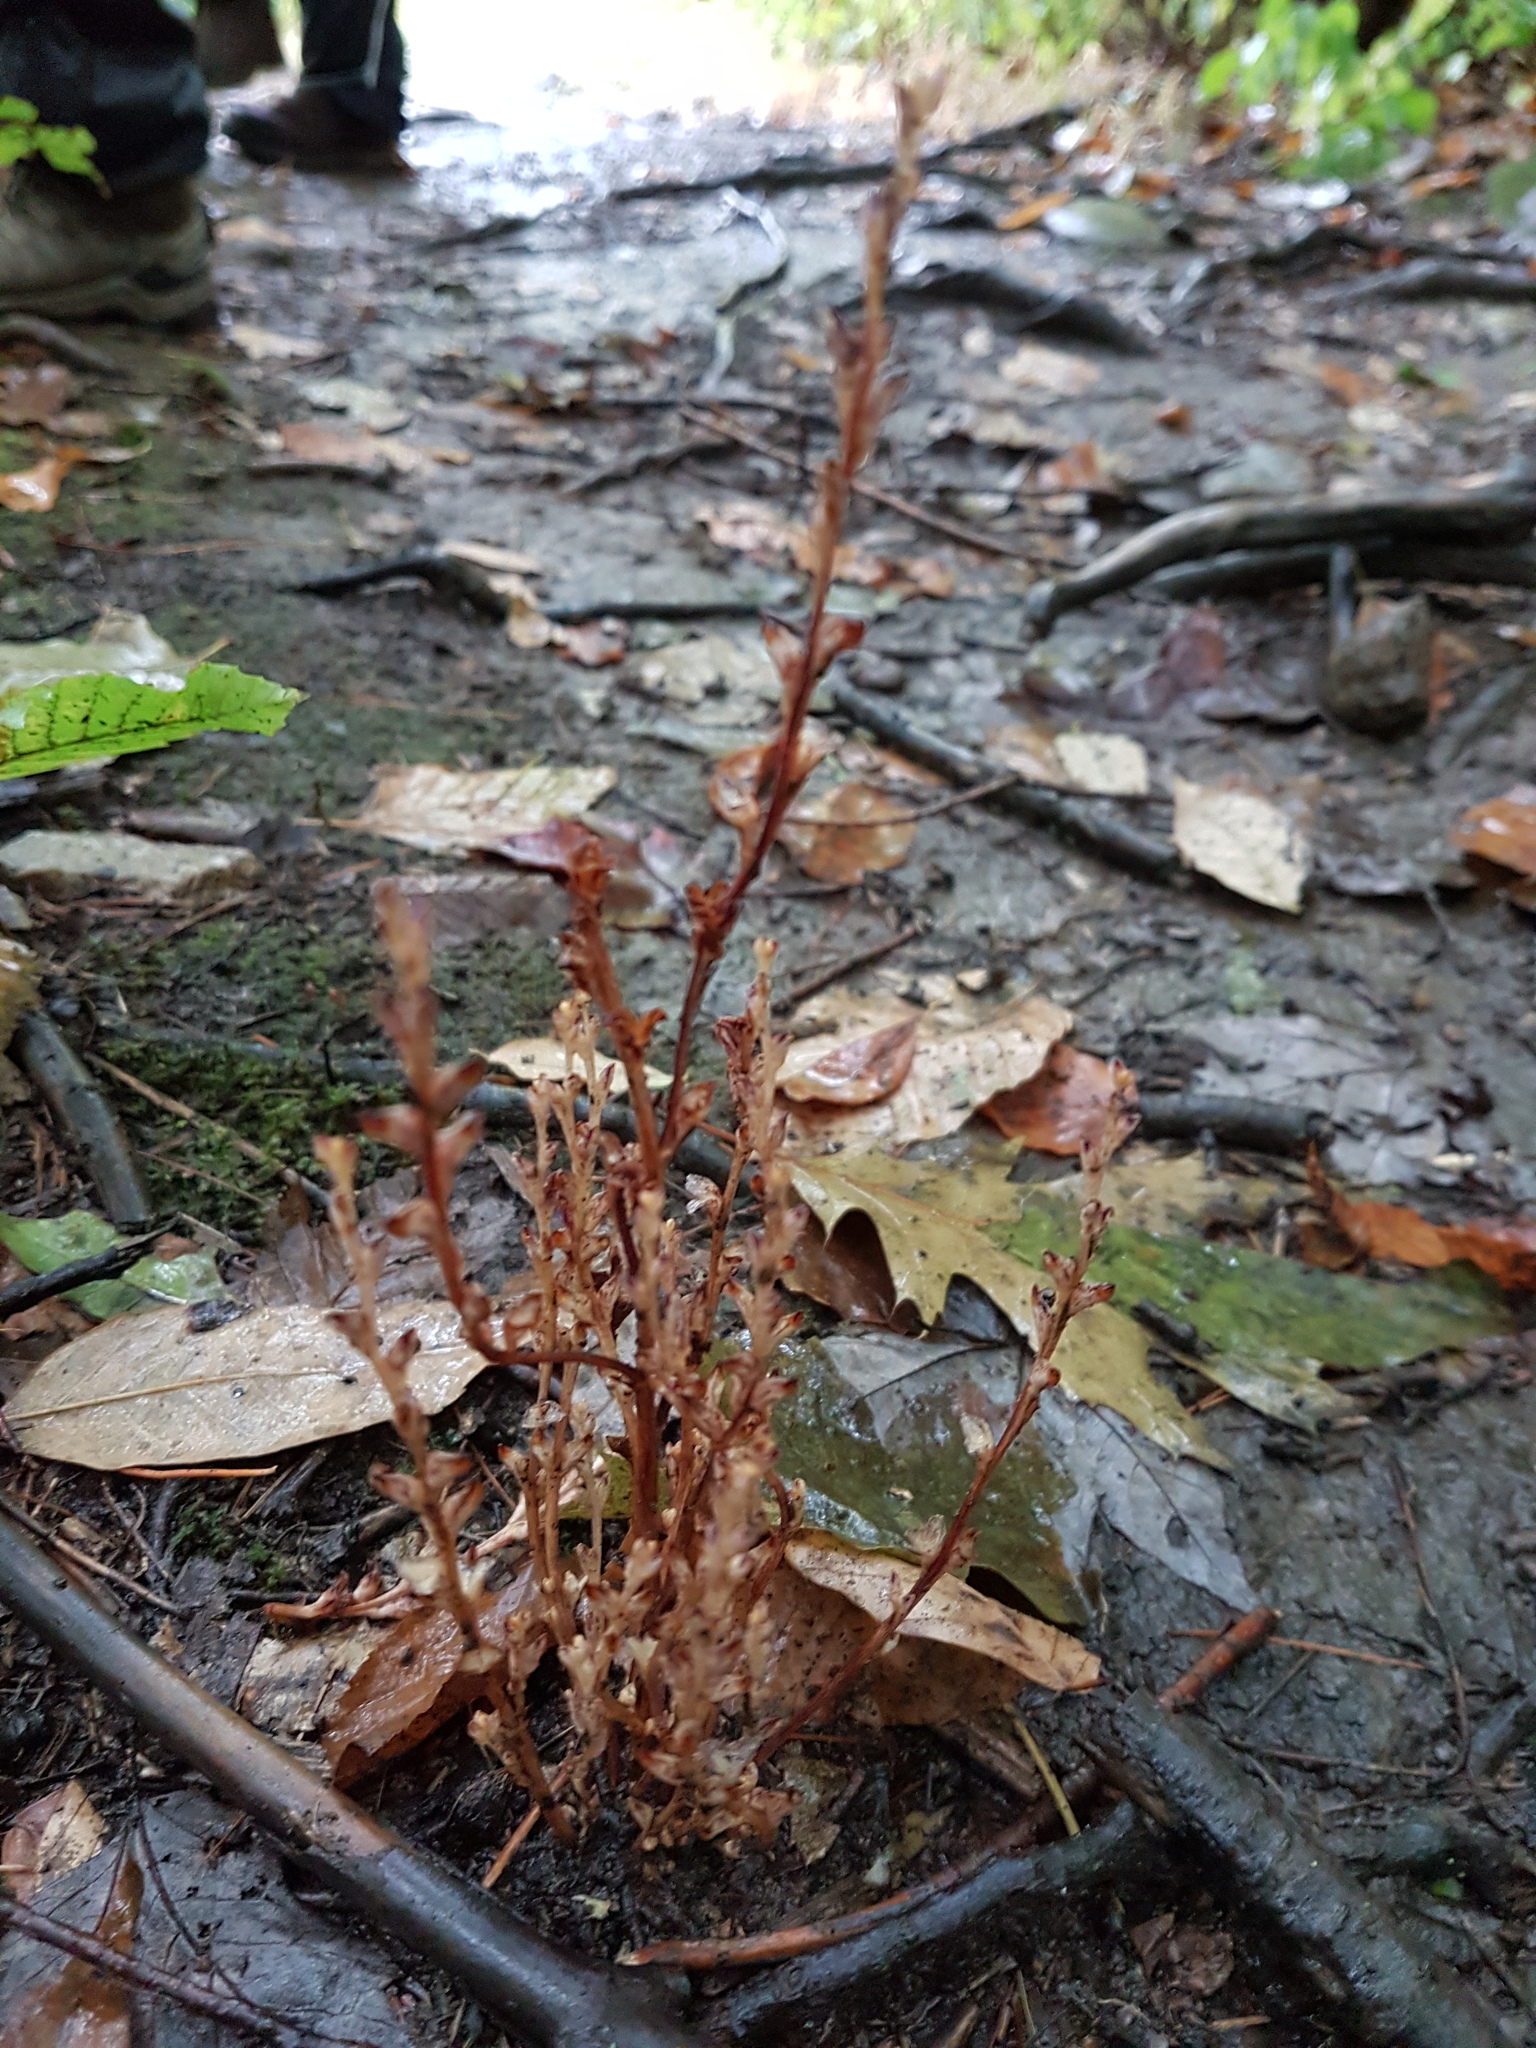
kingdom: Plantae
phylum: Tracheophyta
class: Magnoliopsida
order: Lamiales
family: Orobanchaceae
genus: Epifagus
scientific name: Epifagus virginiana
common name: Beechdrops
